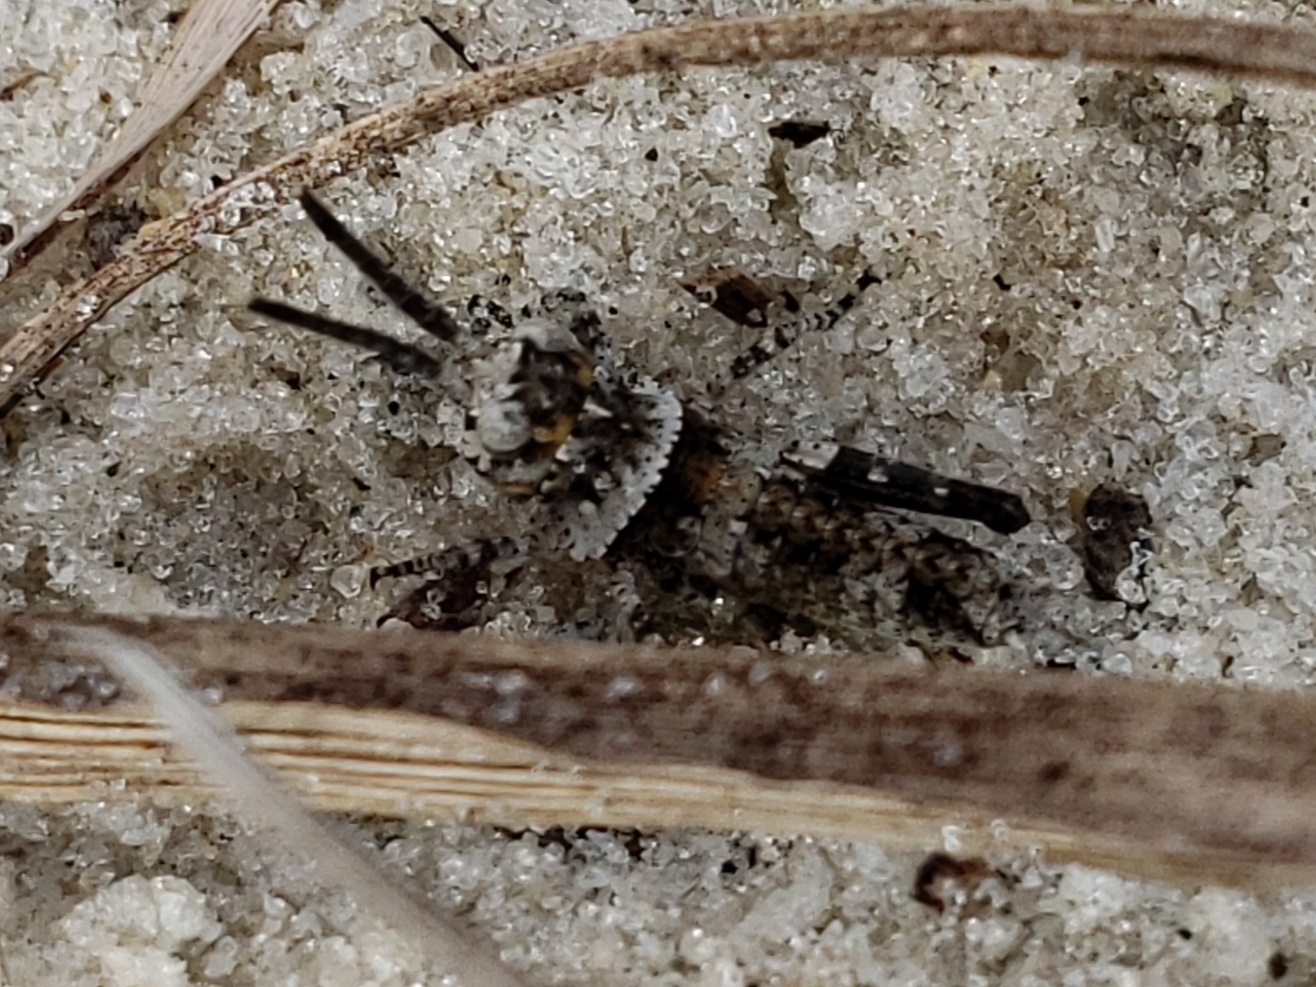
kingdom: Animalia
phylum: Arthropoda
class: Insecta
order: Orthoptera
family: Acrididae
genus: Psinidia
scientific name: Psinidia fenestralis
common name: Long-horned locust
